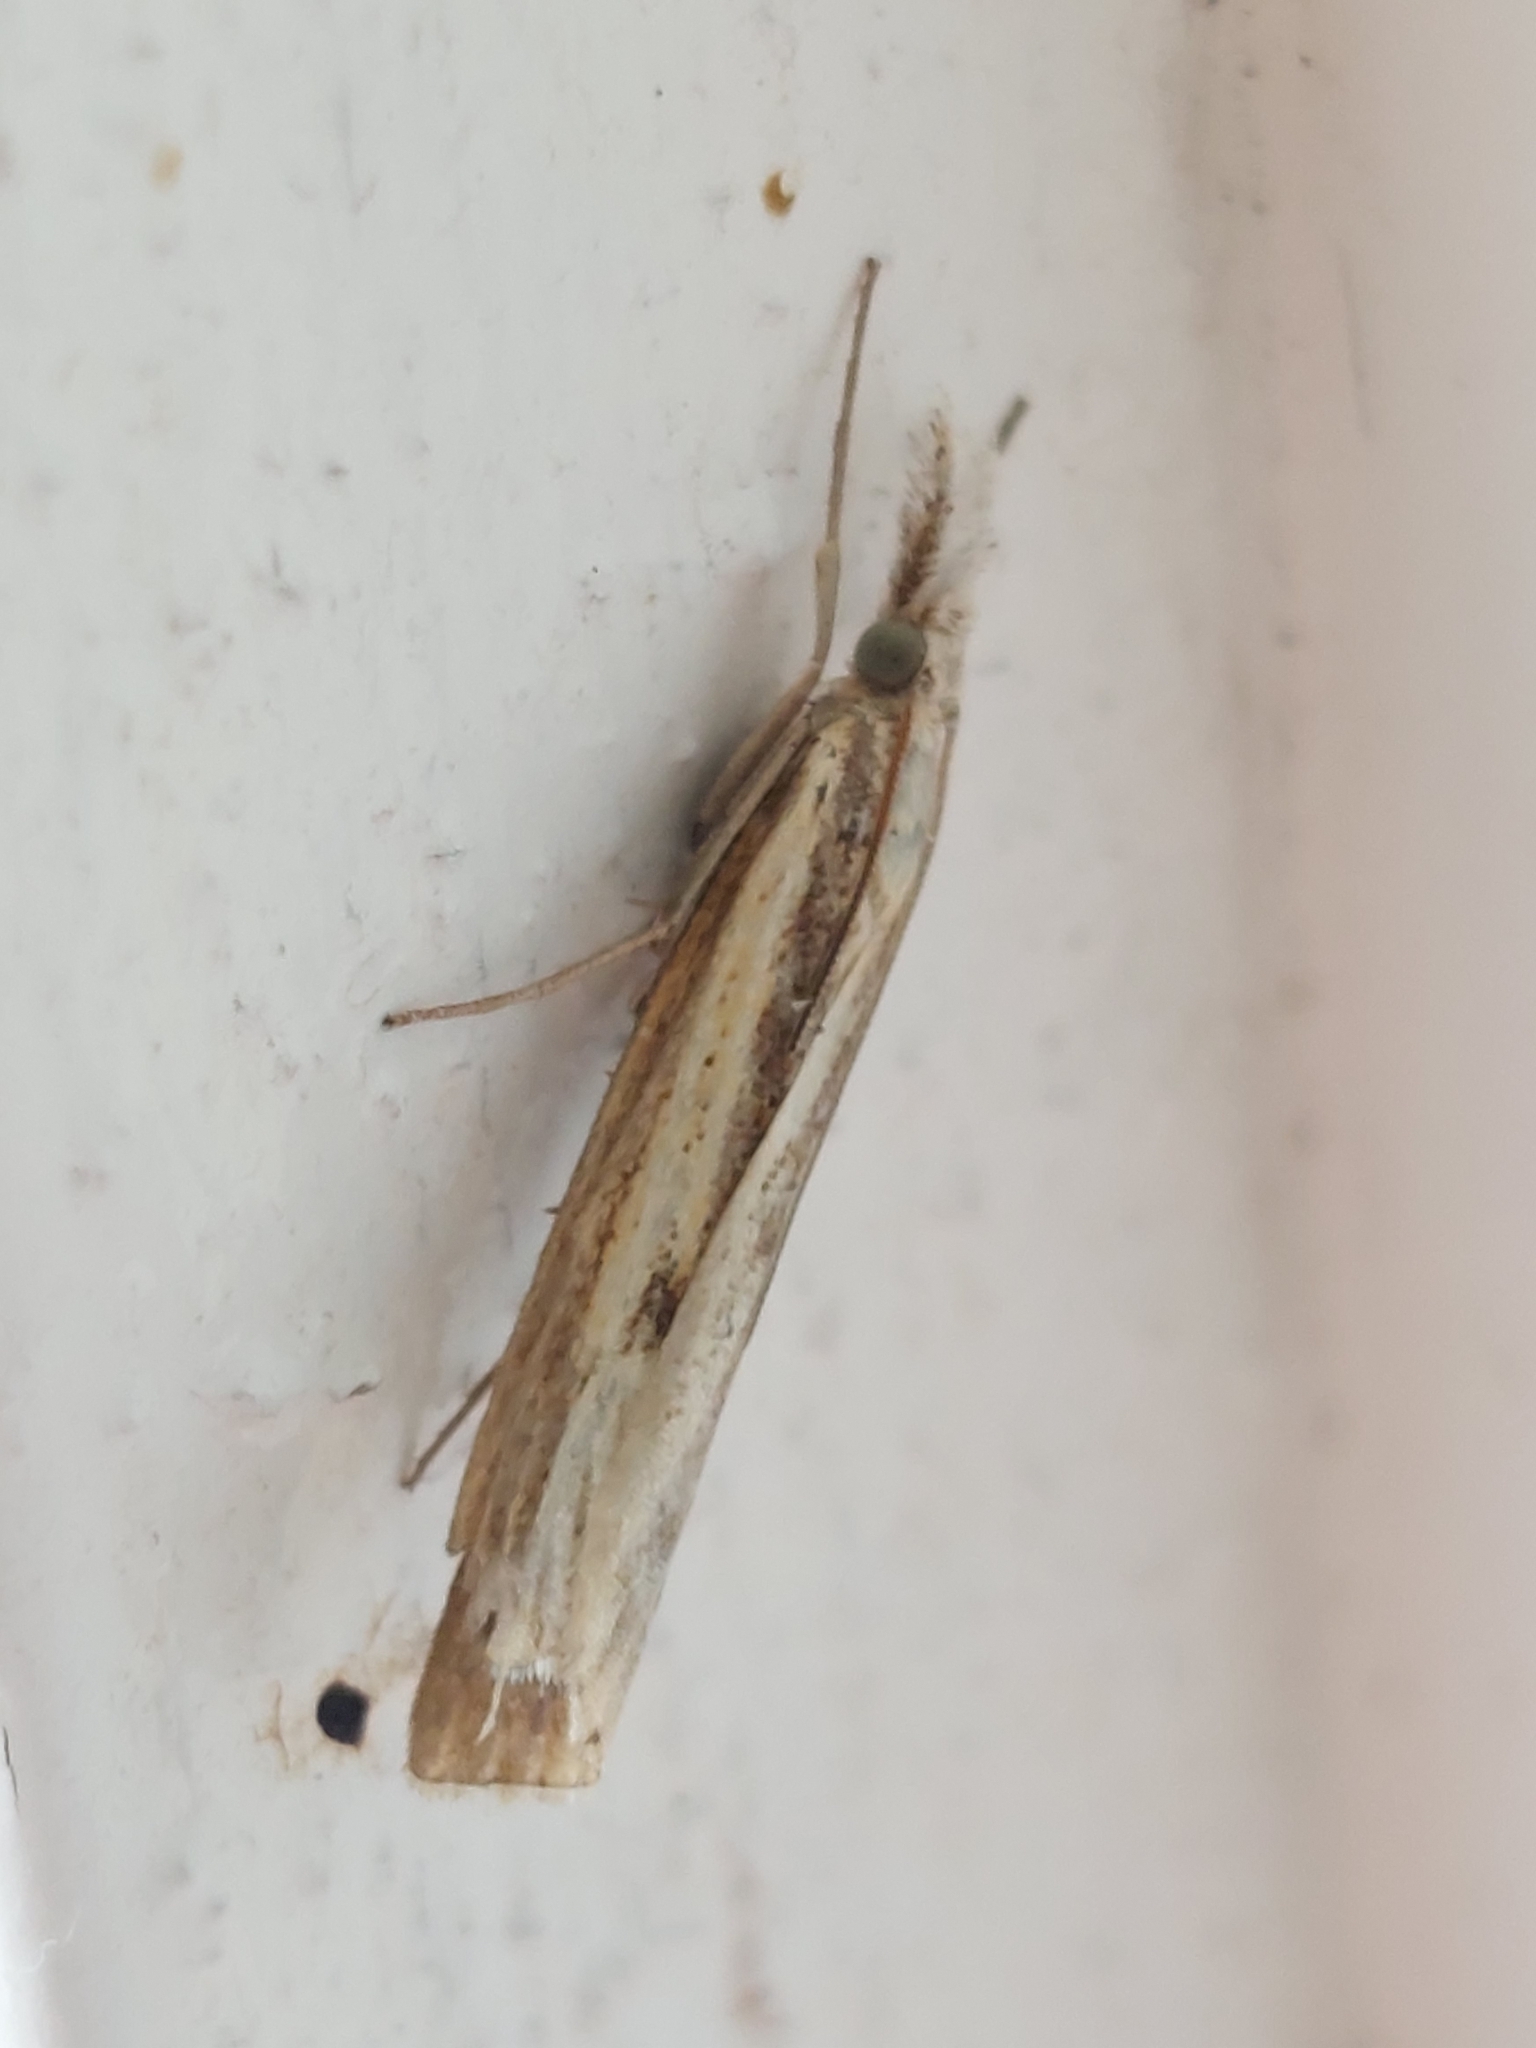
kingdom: Animalia
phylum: Arthropoda
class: Insecta
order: Lepidoptera
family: Crambidae
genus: Agriphila
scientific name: Agriphila inquinatella
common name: Barred grass-veneer
